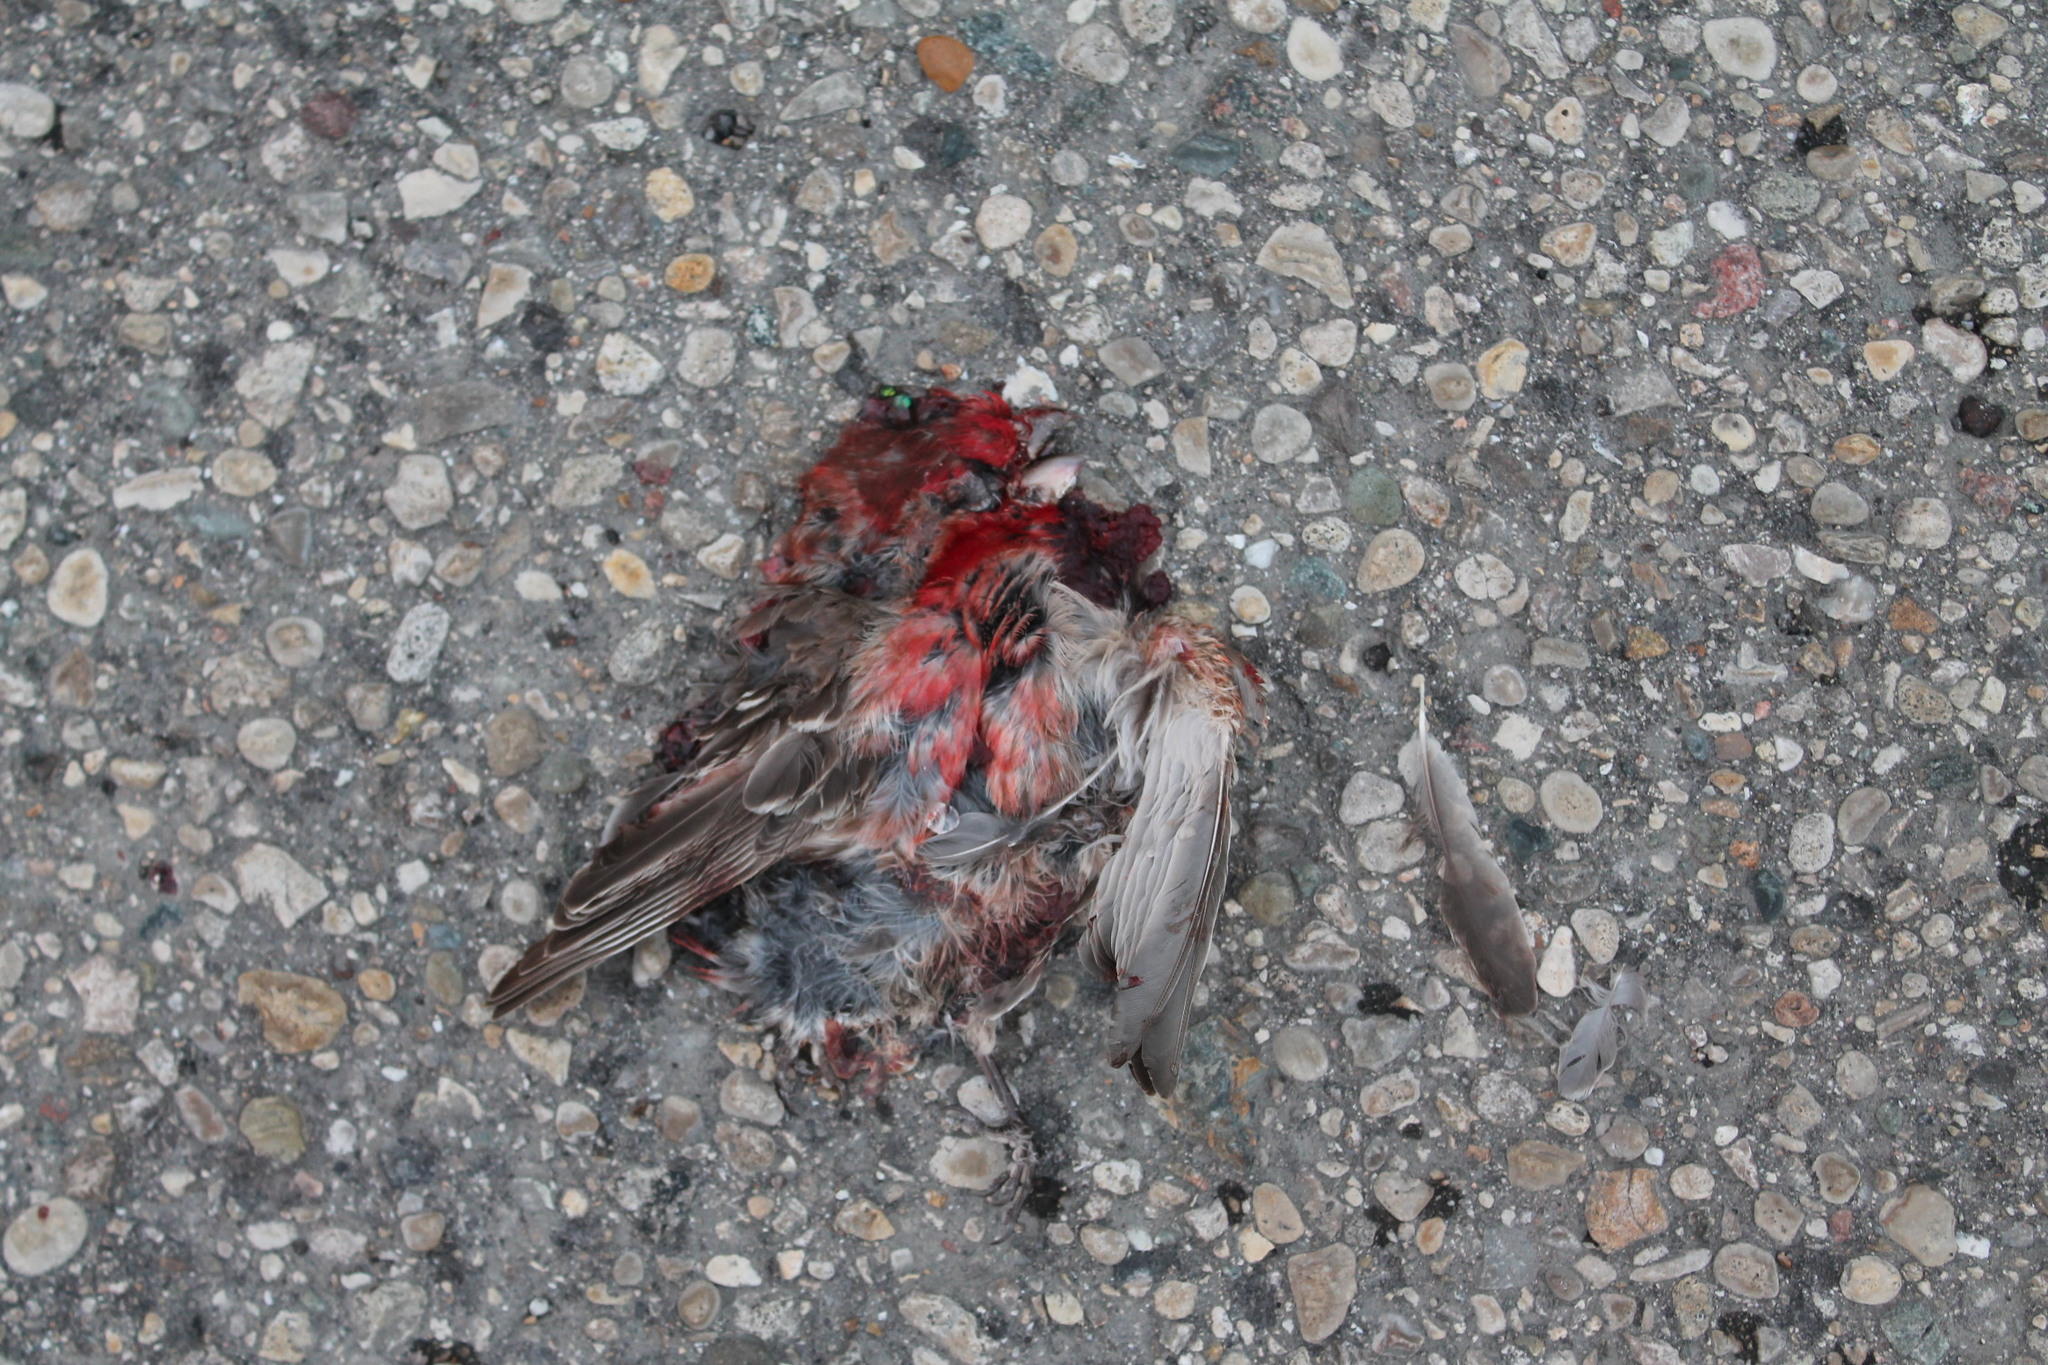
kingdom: Animalia
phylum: Chordata
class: Aves
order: Passeriformes
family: Fringillidae
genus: Haemorhous
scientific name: Haemorhous mexicanus
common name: House finch
